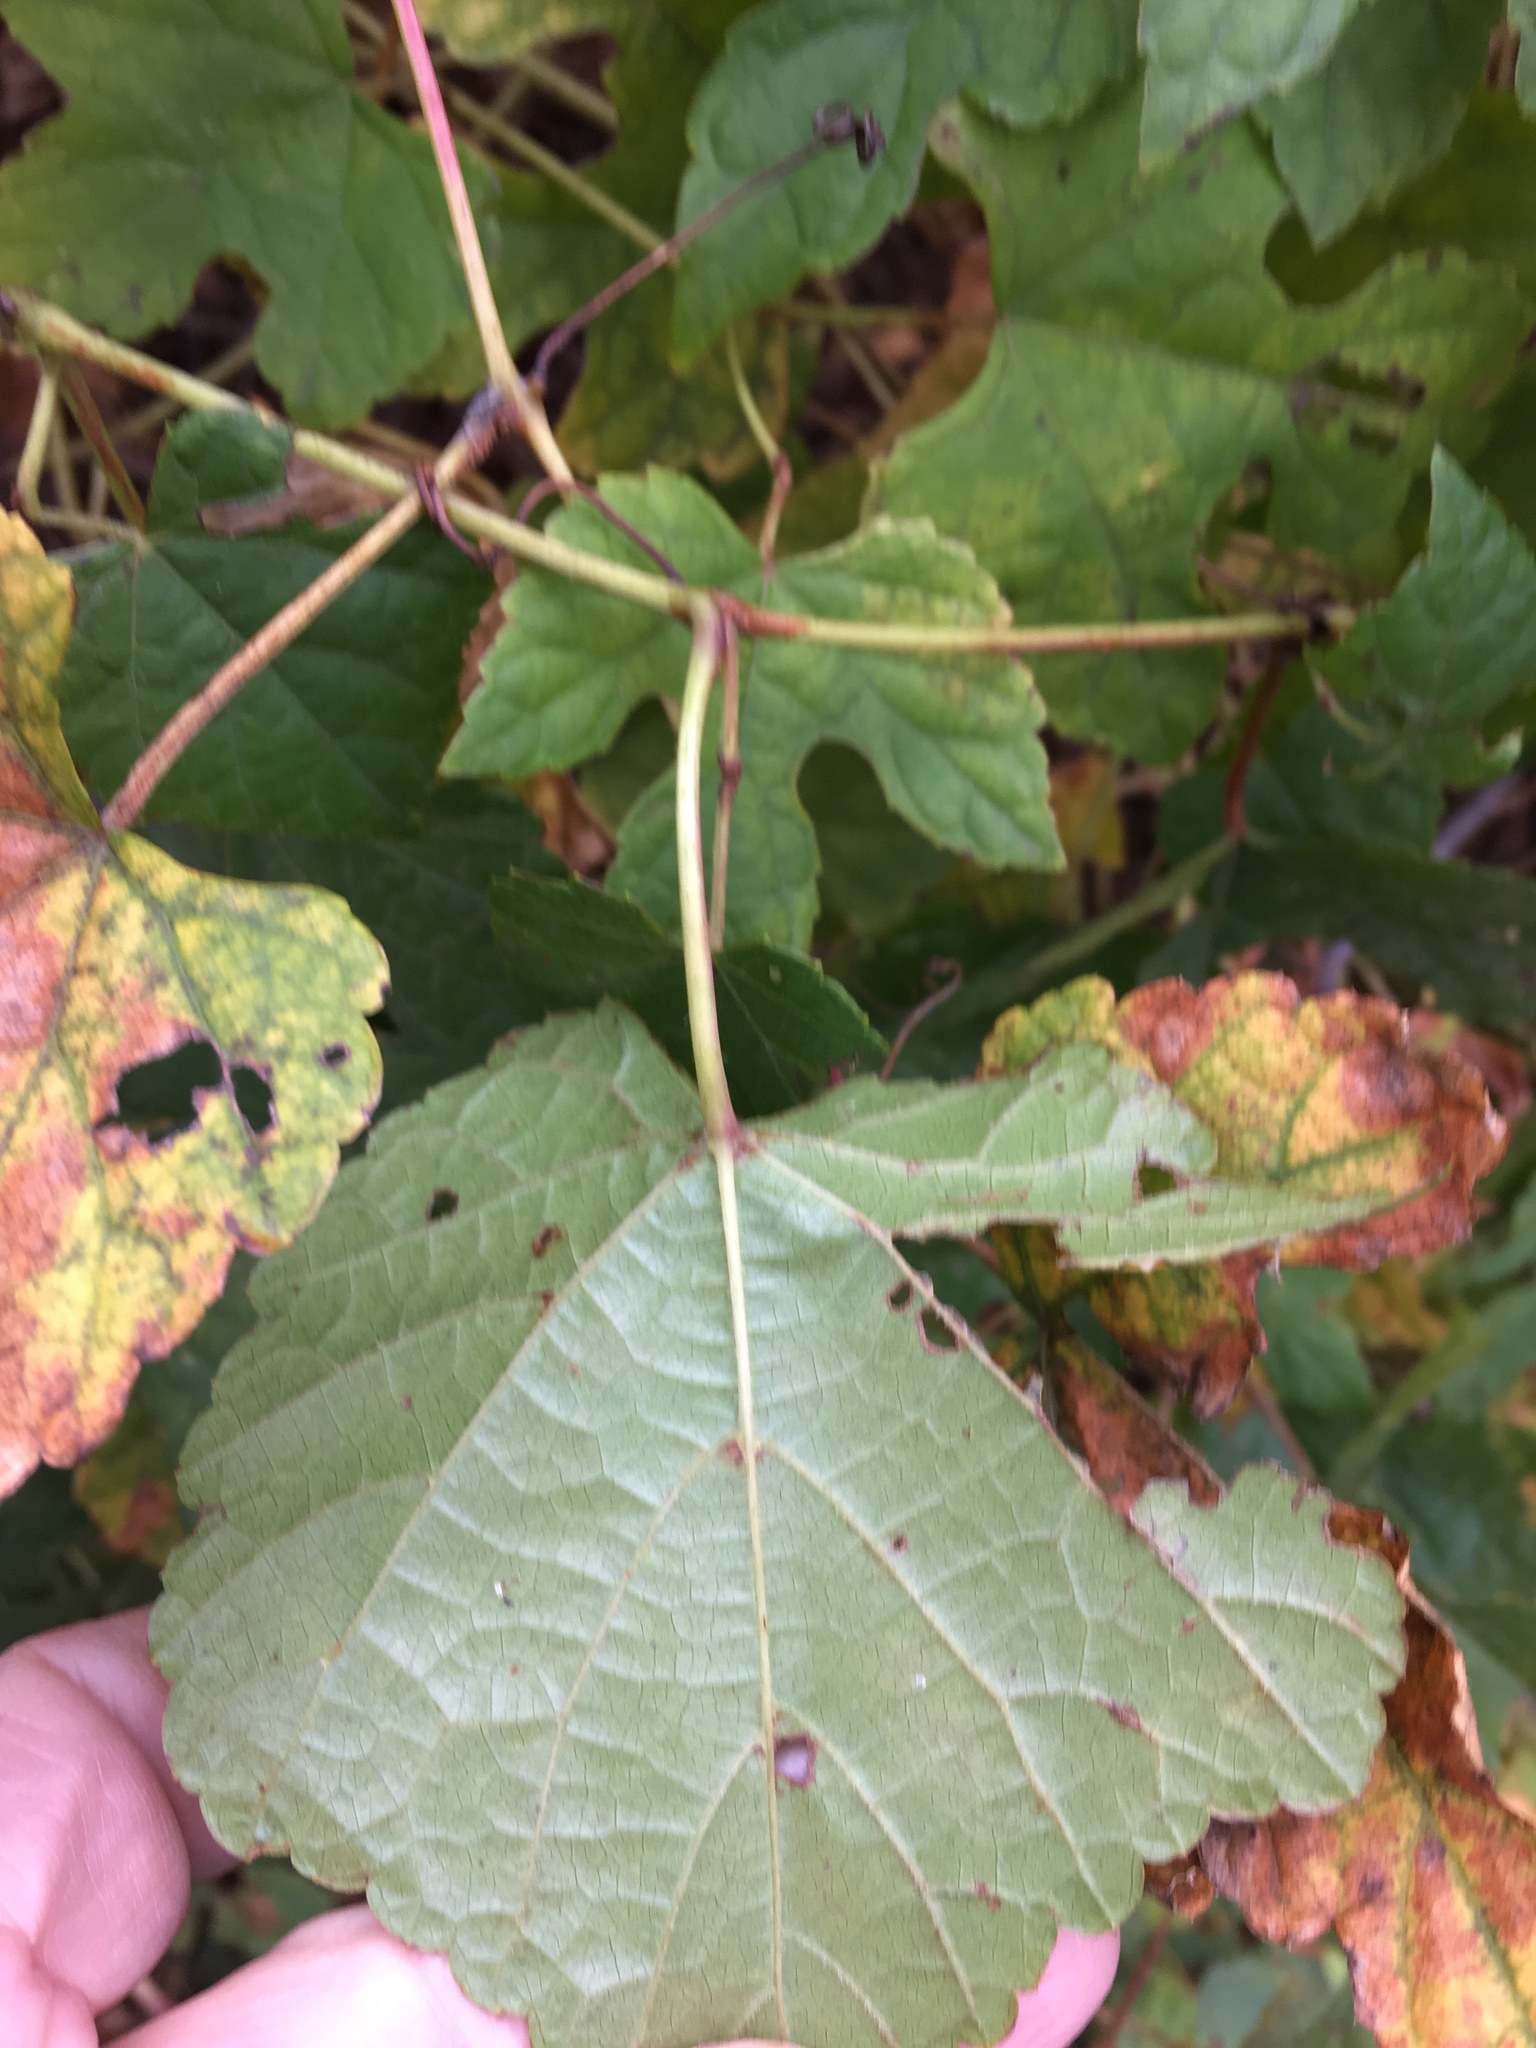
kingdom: Plantae
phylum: Tracheophyta
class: Magnoliopsida
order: Vitales
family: Vitaceae
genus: Ampelopsis
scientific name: Ampelopsis glandulosa
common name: Amur peppervine
